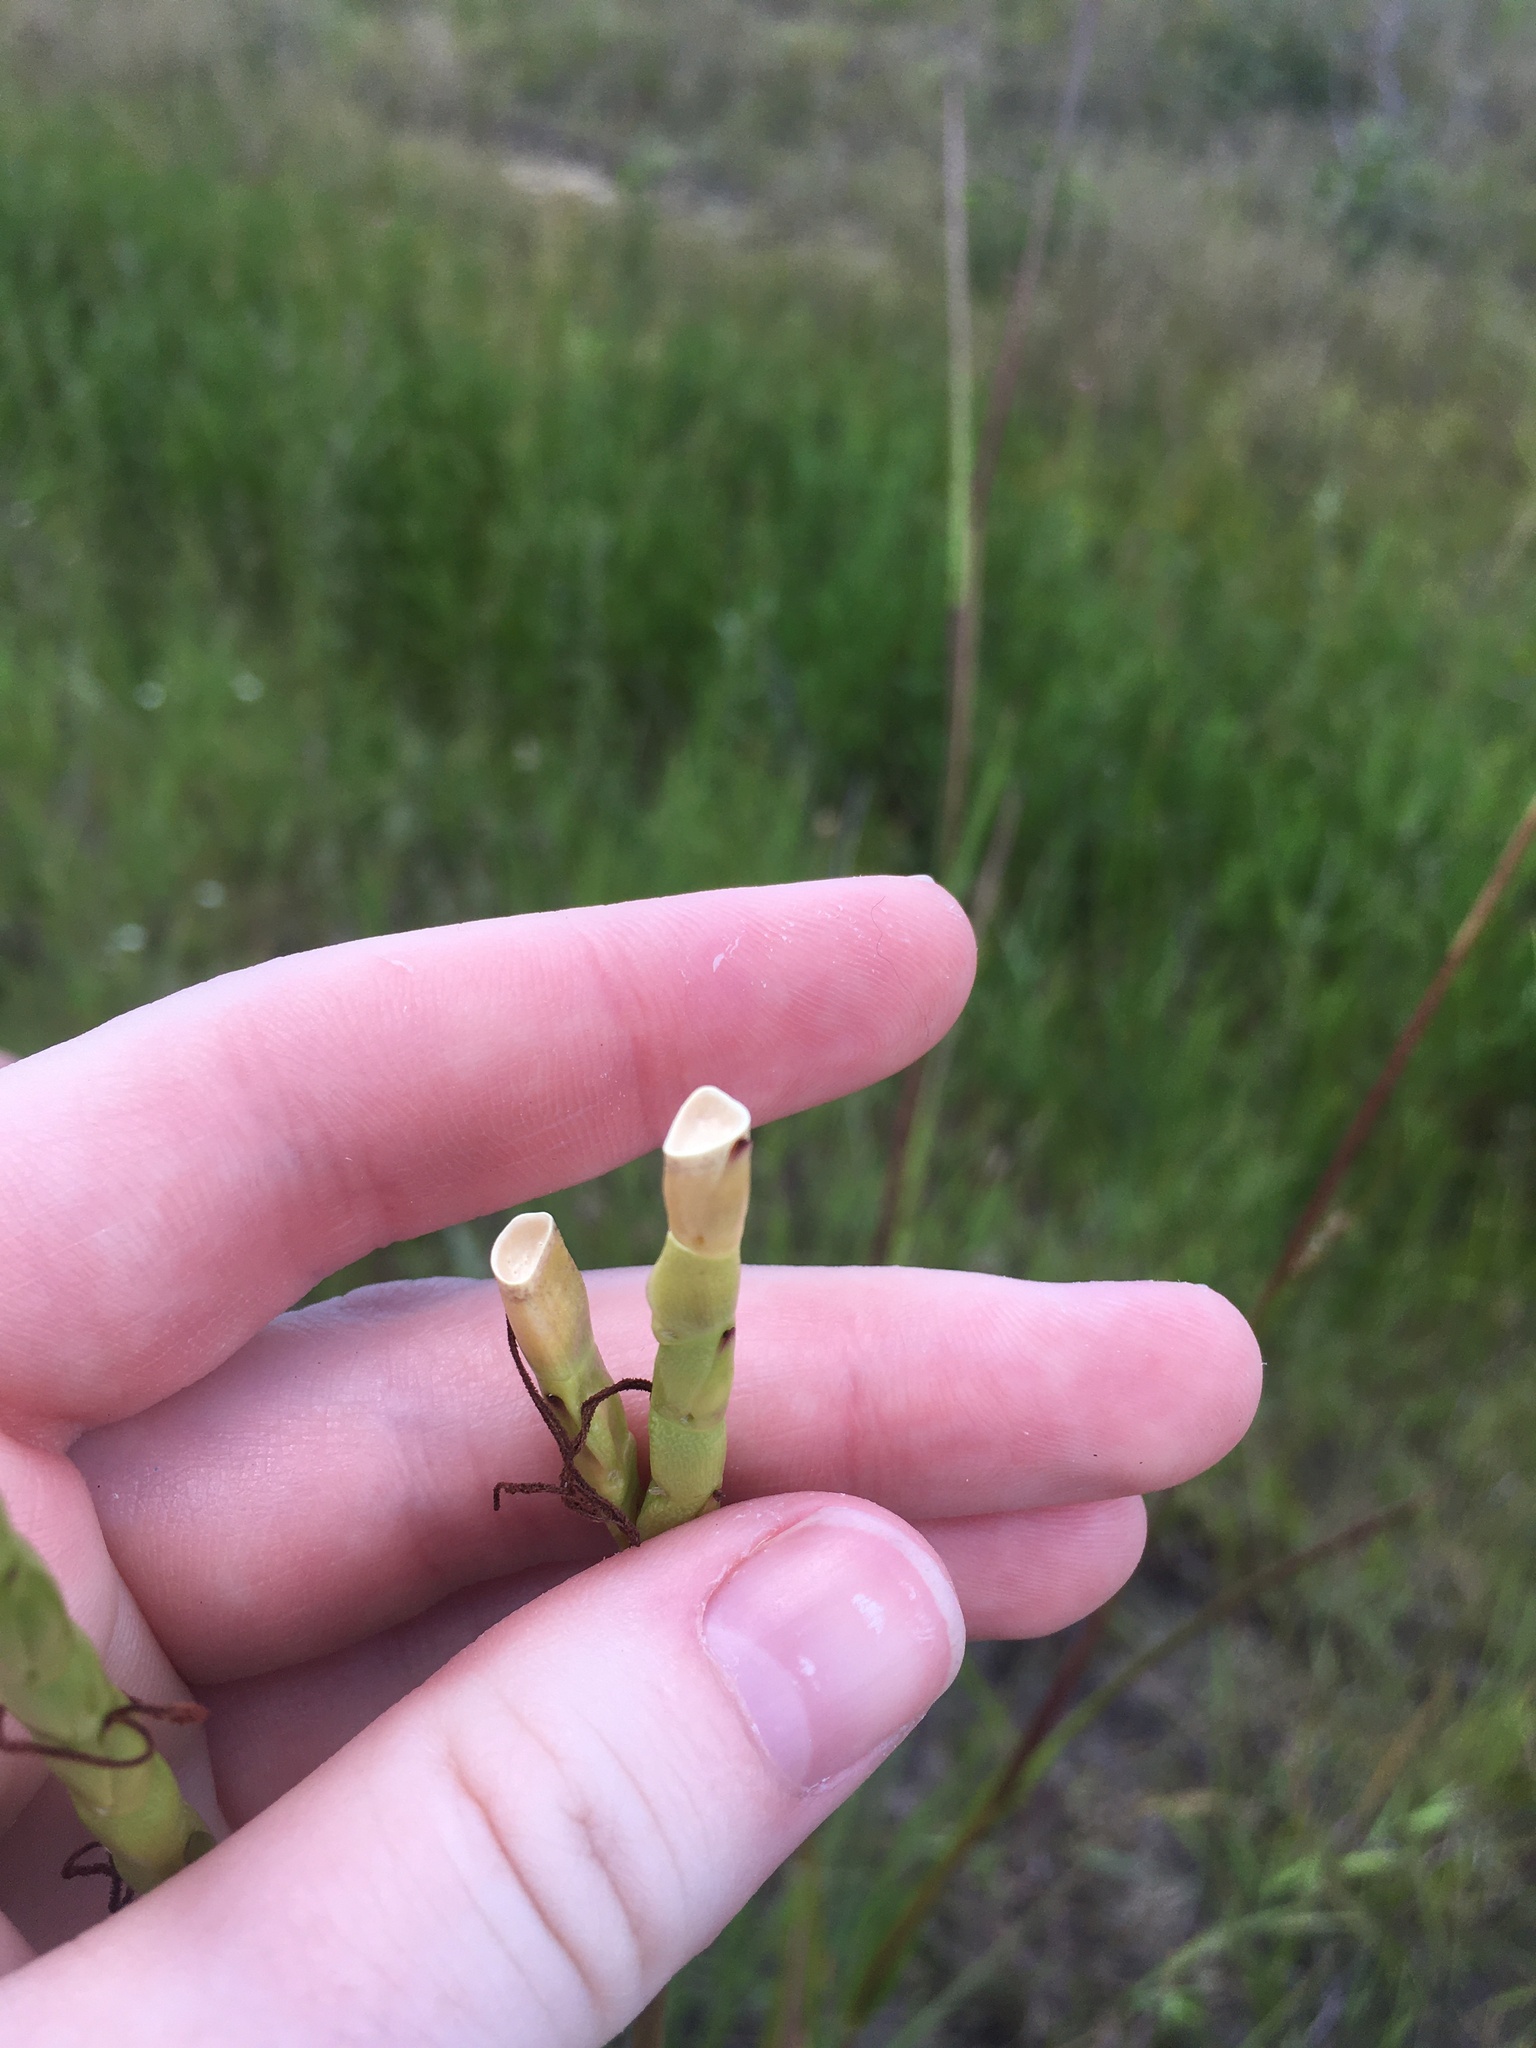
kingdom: Plantae
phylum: Tracheophyta
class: Liliopsida
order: Poales
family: Poaceae
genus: Tripsacum
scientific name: Tripsacum dactyloides
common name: Buffalo-grass
